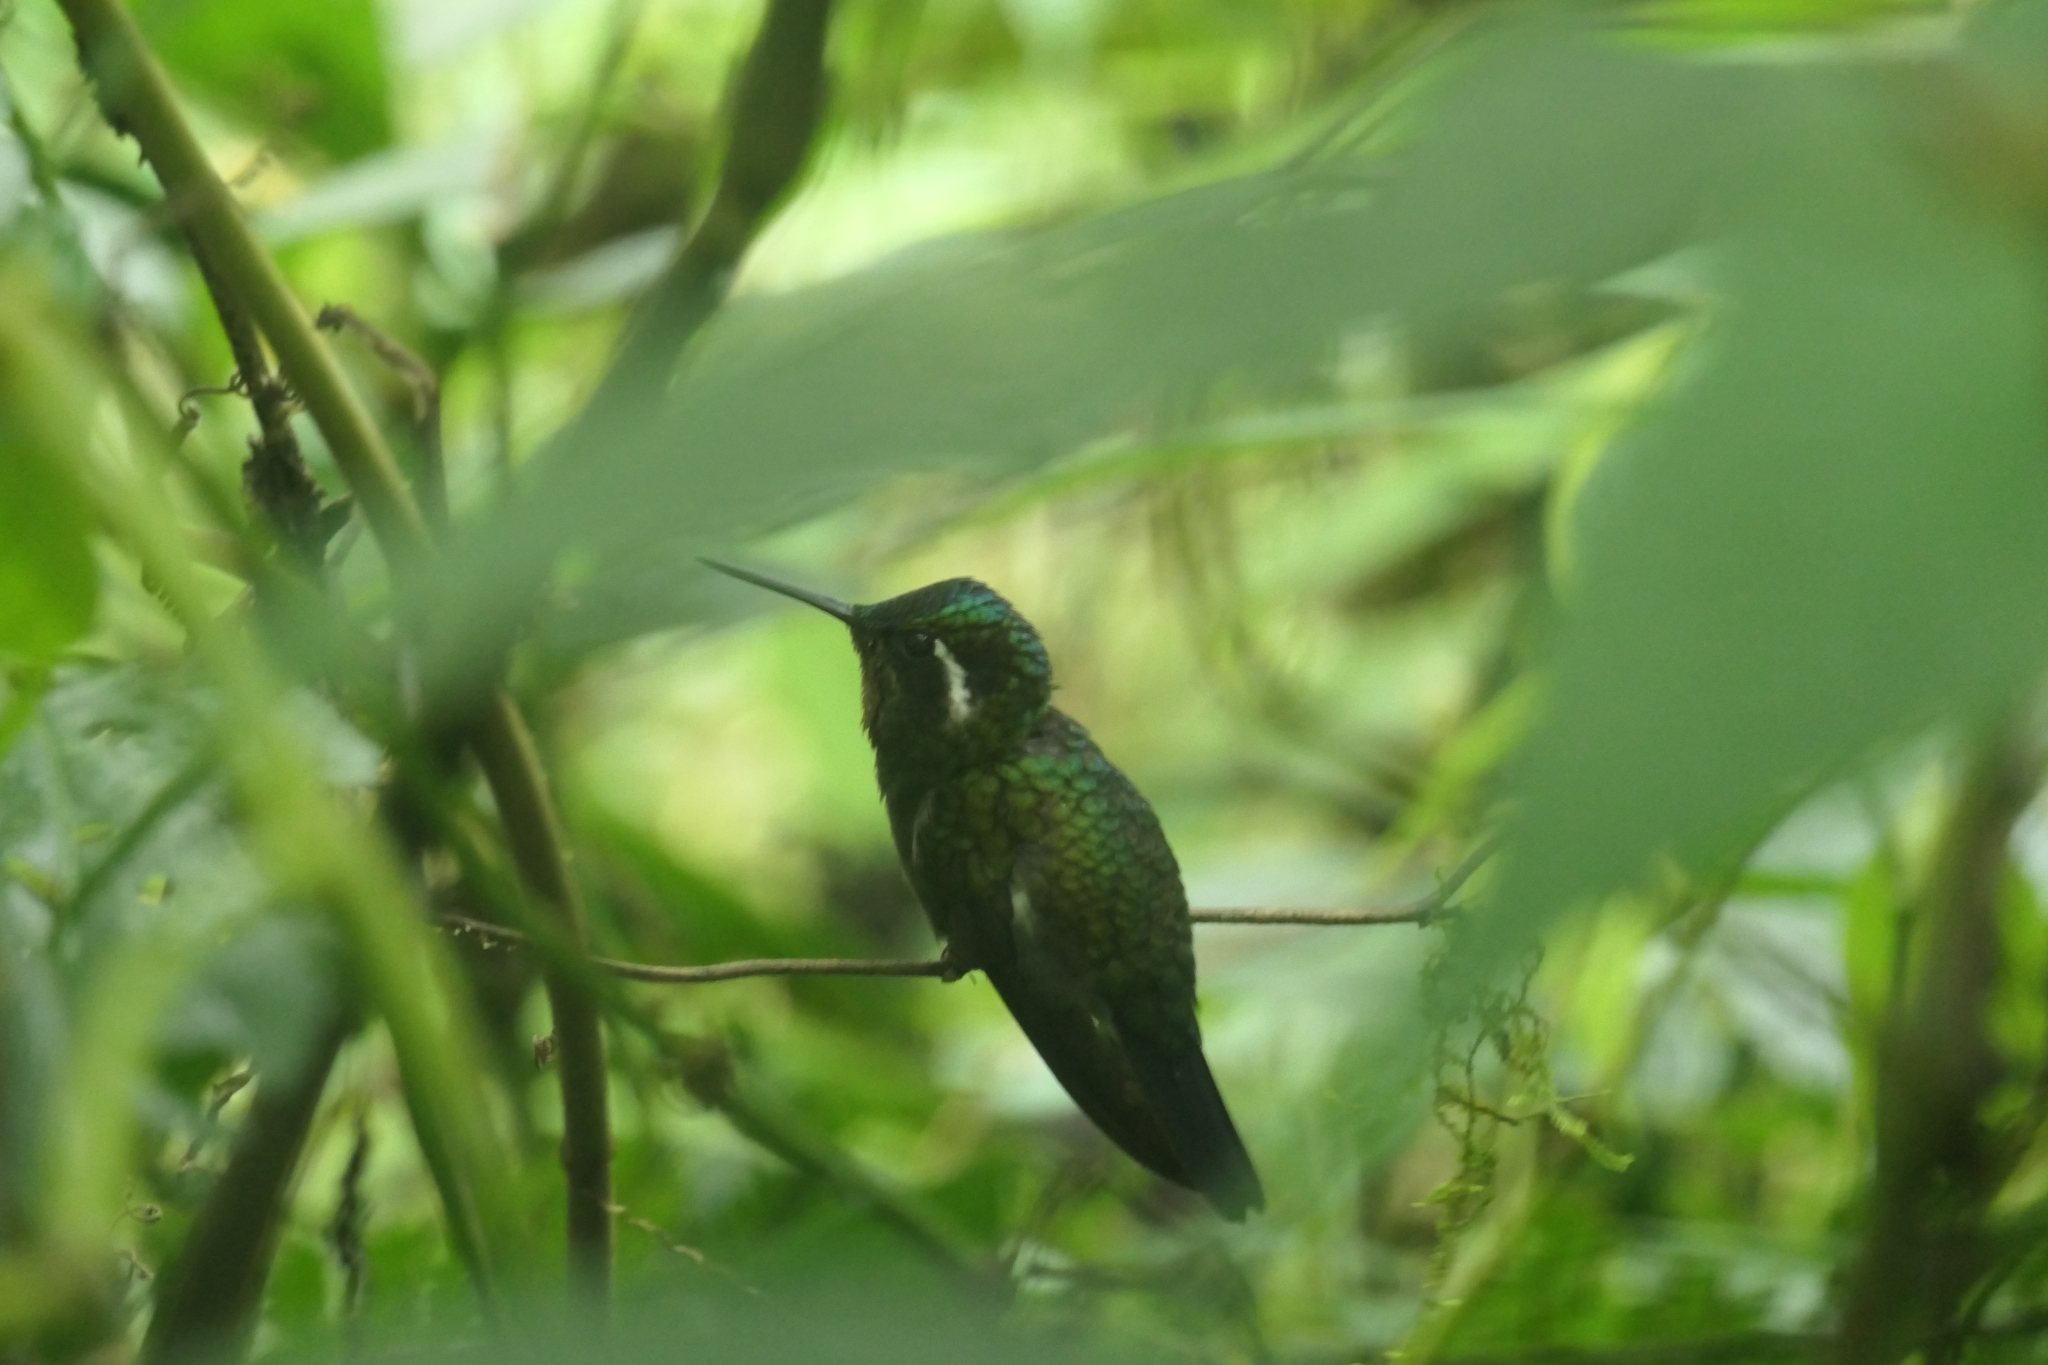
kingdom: Animalia
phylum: Chordata
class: Aves
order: Apodiformes
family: Trochilidae
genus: Lampornis
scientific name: Lampornis calolaemus
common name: Purple-throated mountain-gem
